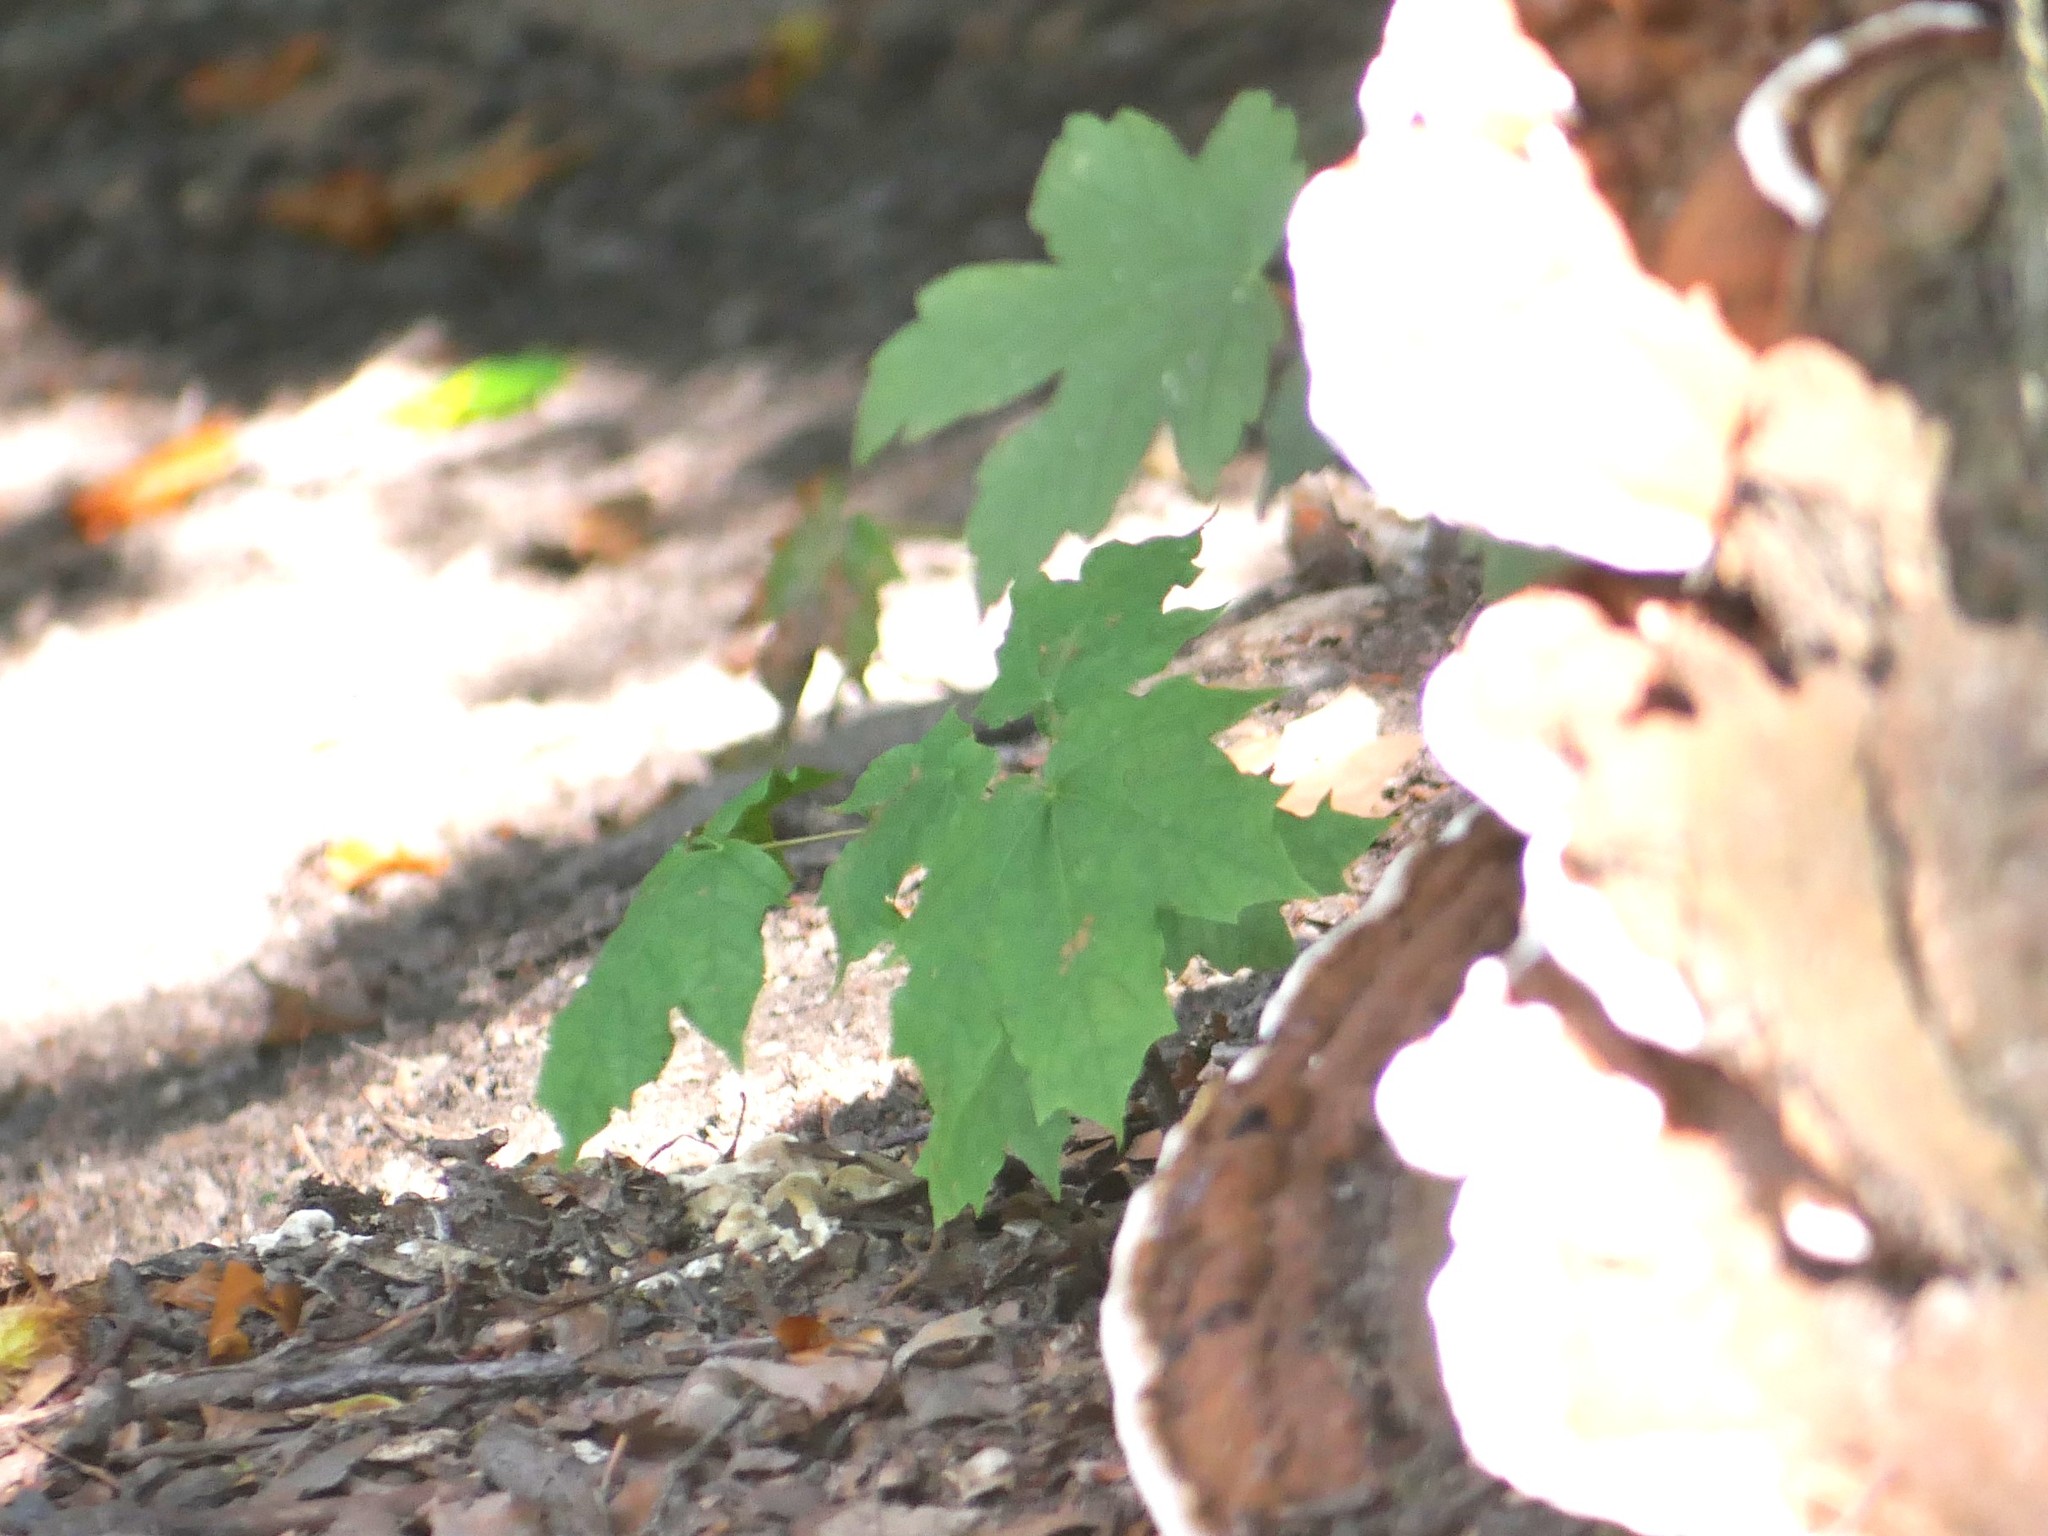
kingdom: Plantae
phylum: Tracheophyta
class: Magnoliopsida
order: Sapindales
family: Sapindaceae
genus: Acer
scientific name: Acer platanoides
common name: Norway maple
